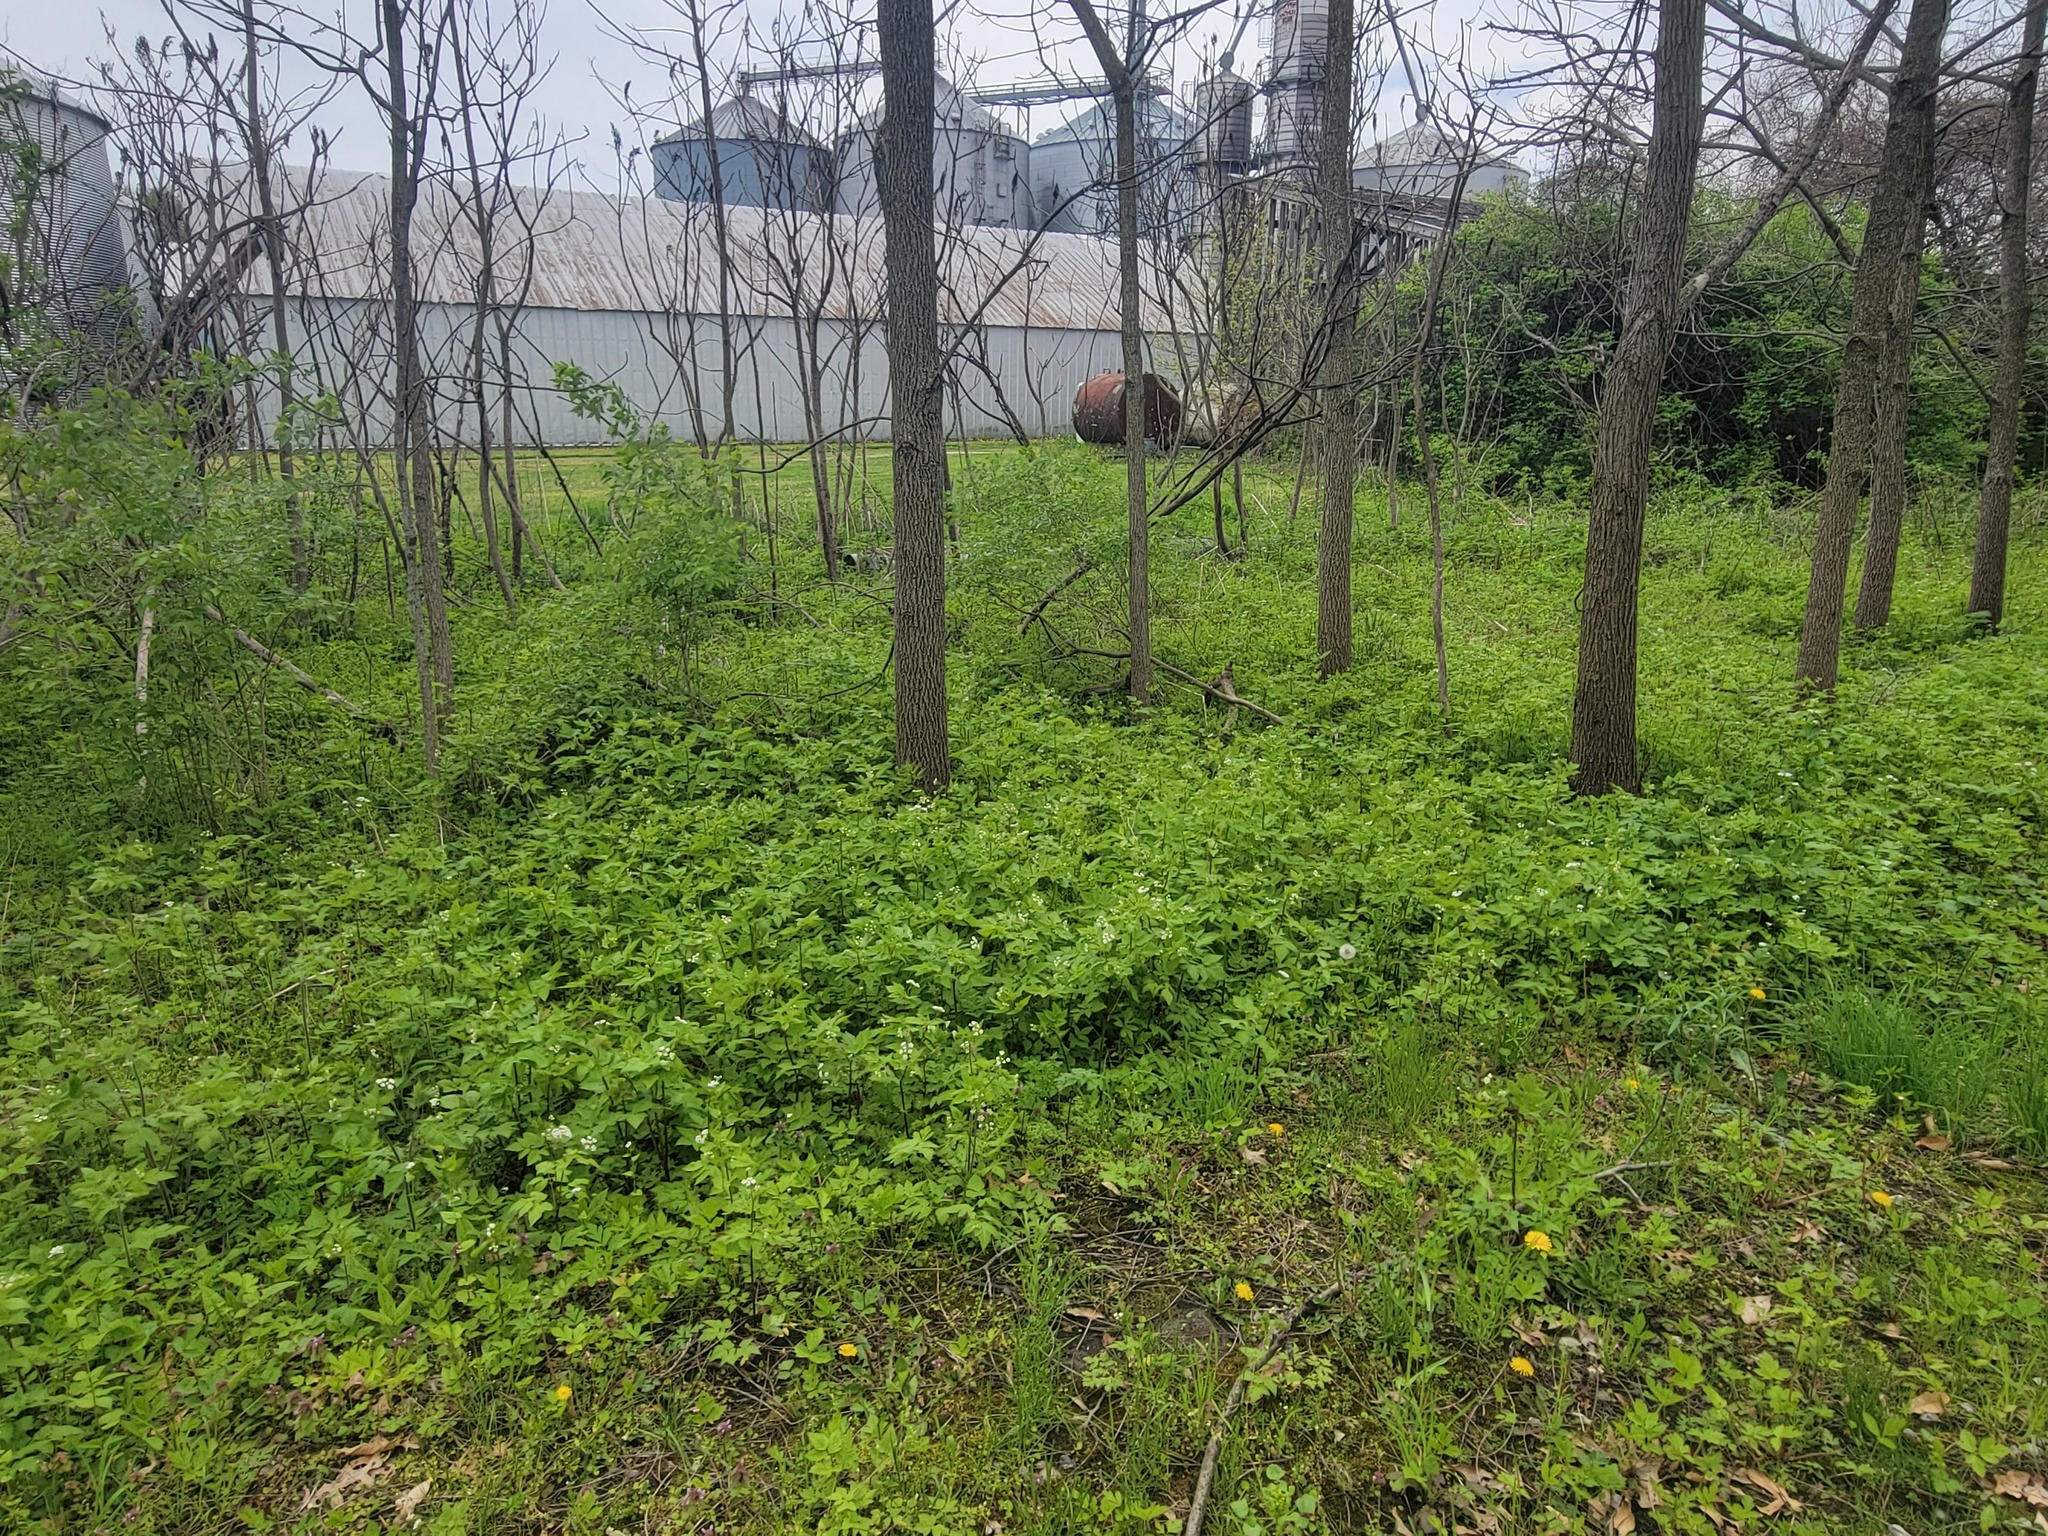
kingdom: Plantae
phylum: Tracheophyta
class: Magnoliopsida
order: Brassicales
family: Brassicaceae
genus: Alliaria
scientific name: Alliaria petiolata
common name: Garlic mustard
